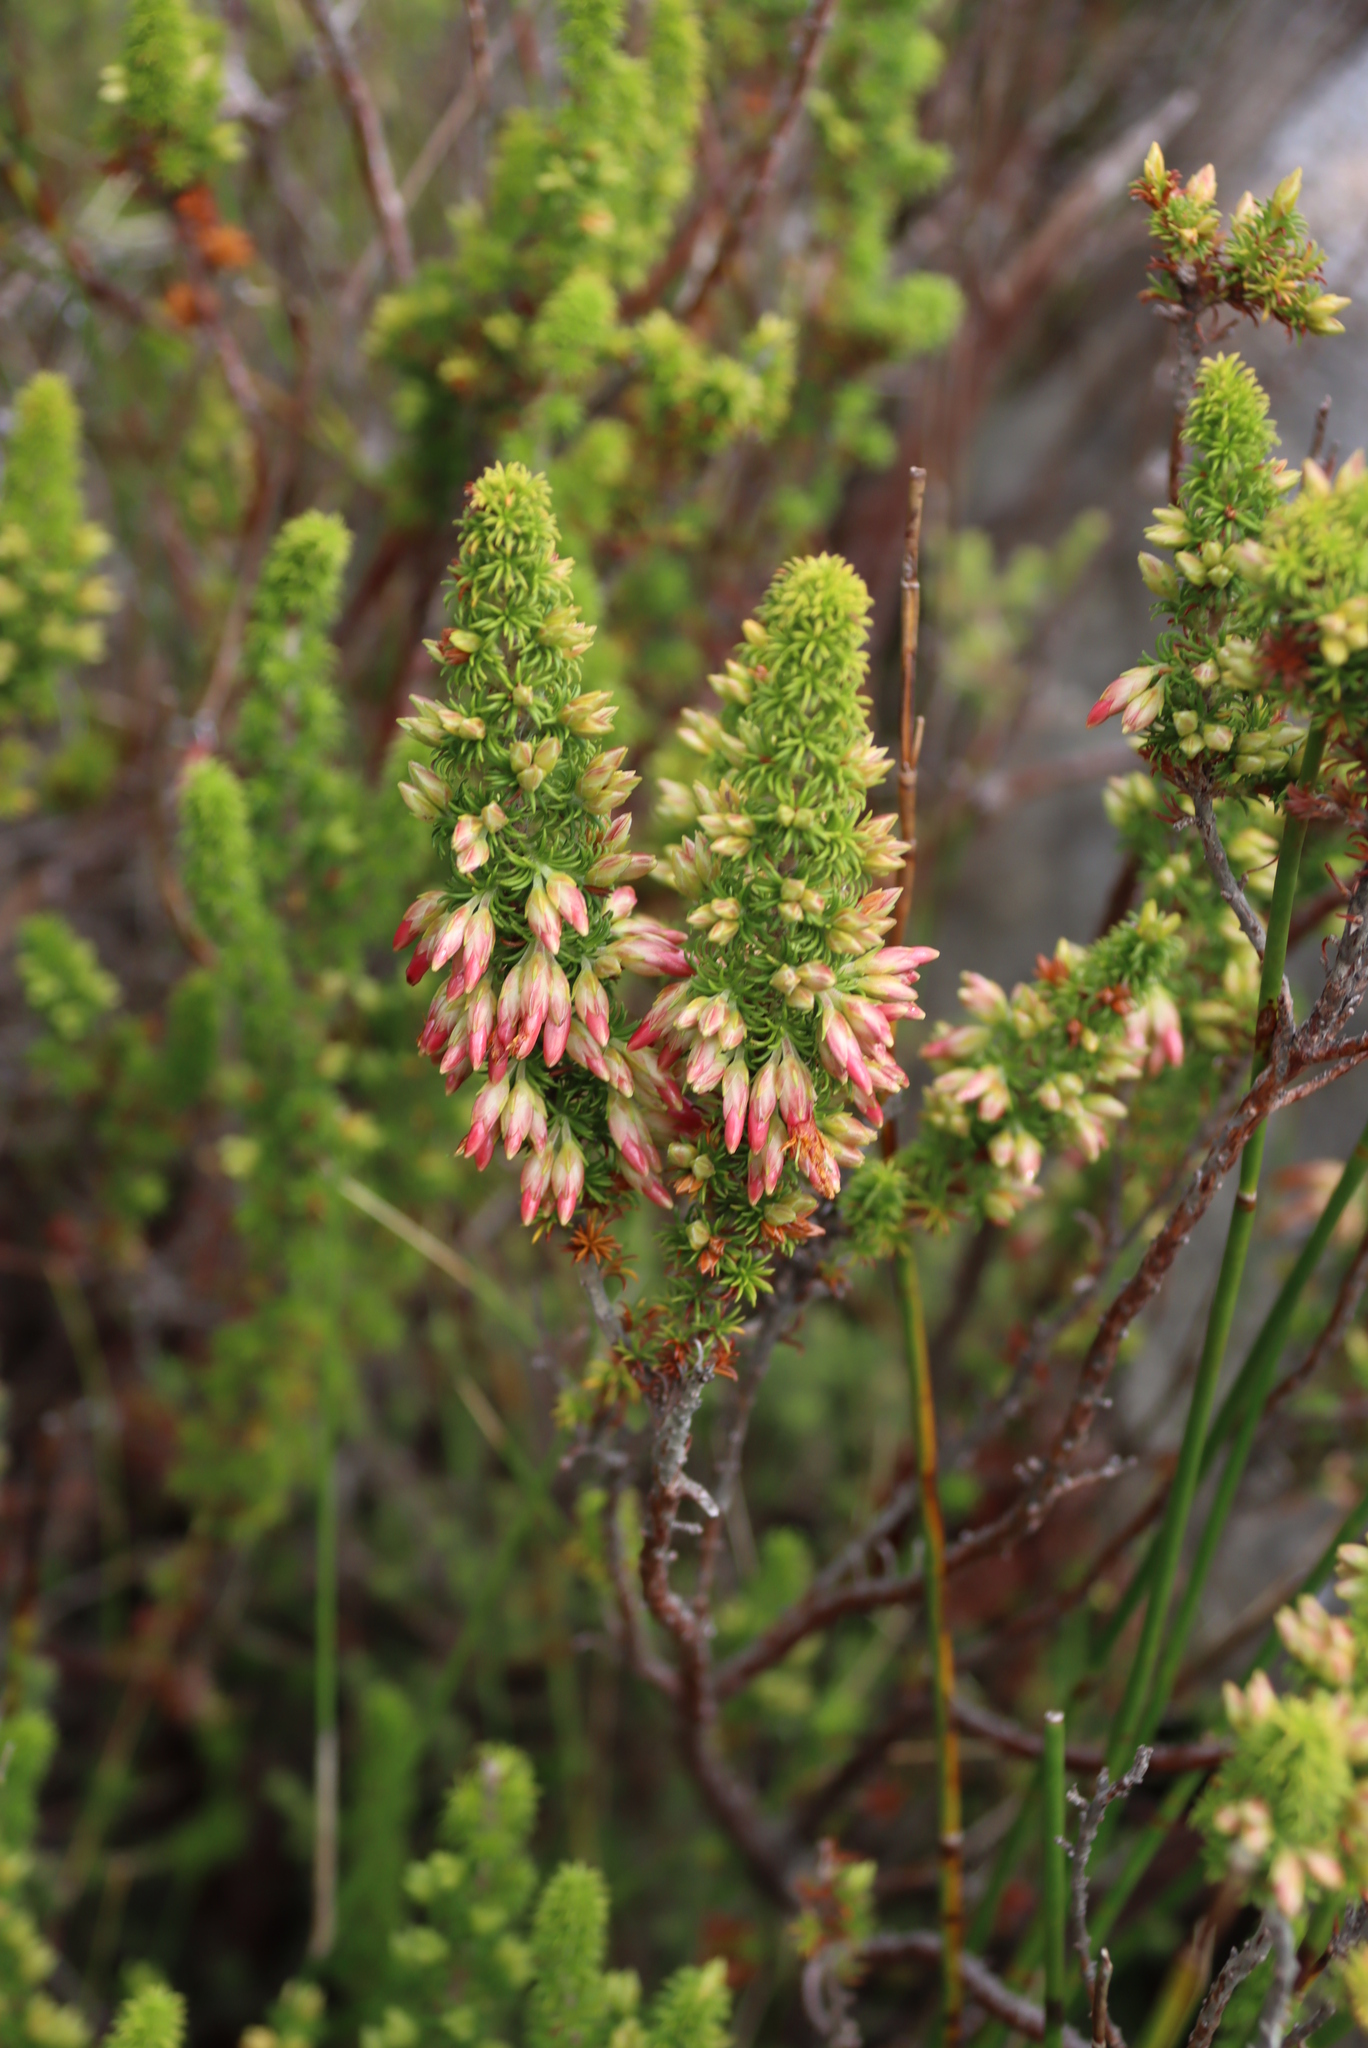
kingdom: Plantae
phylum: Tracheophyta
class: Magnoliopsida
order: Ericales
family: Ericaceae
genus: Erica
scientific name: Erica coccinea
